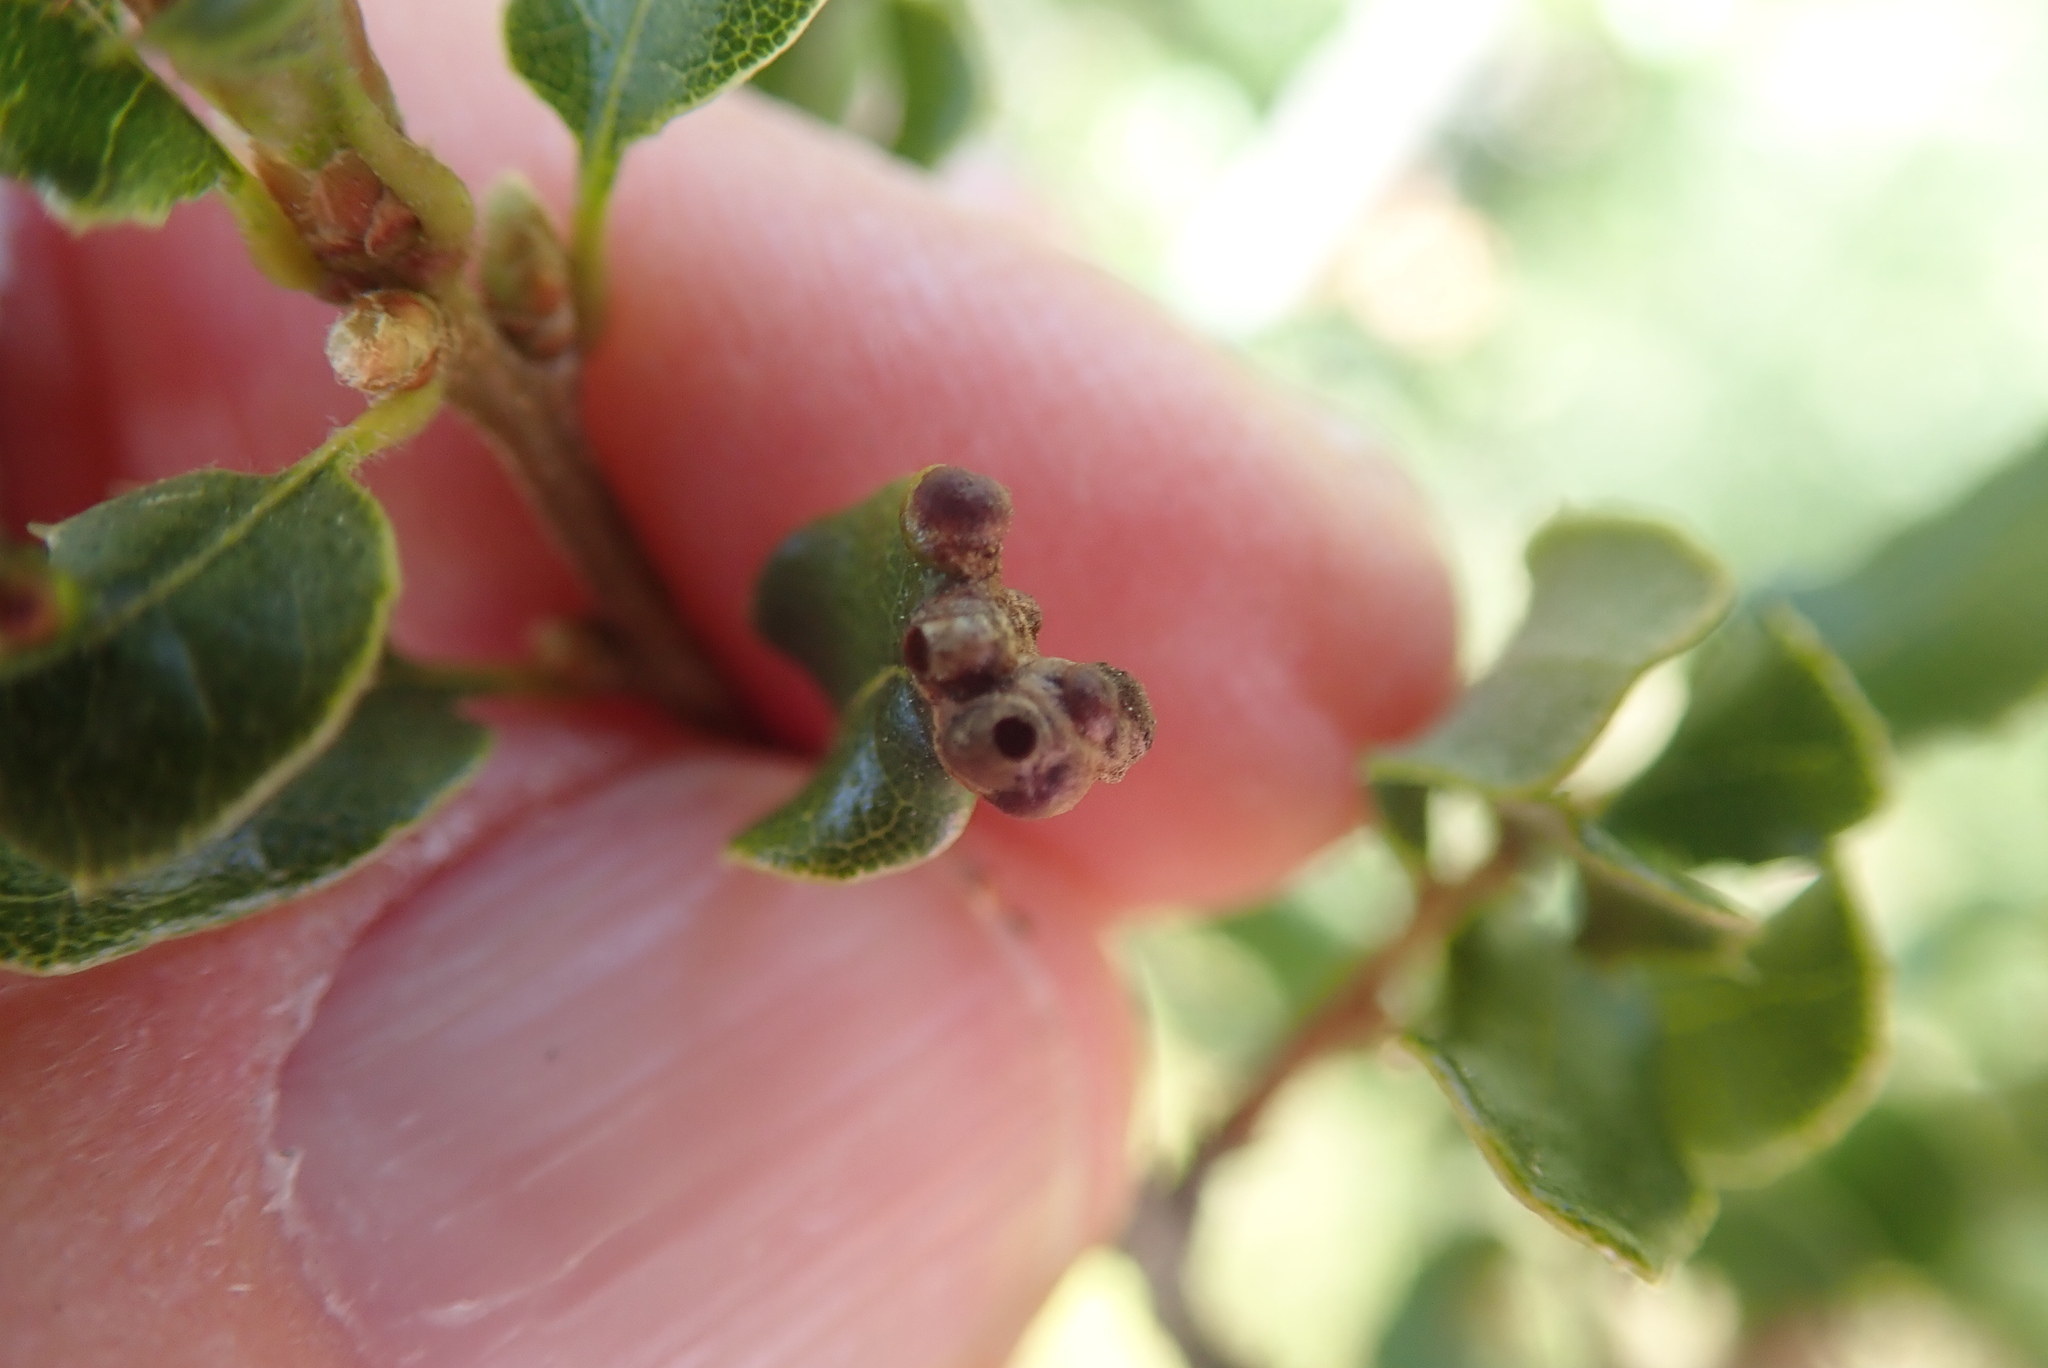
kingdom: Animalia
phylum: Arthropoda
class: Insecta
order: Hymenoptera
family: Cynipidae
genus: Neuroterus
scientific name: Neuroterus saltarius
